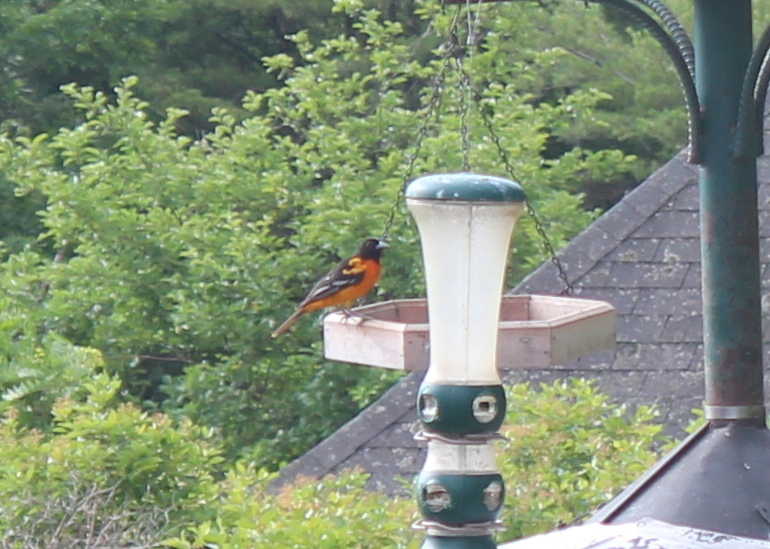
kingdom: Animalia
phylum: Chordata
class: Aves
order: Passeriformes
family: Icteridae
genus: Icterus
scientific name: Icterus galbula
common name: Baltimore oriole
